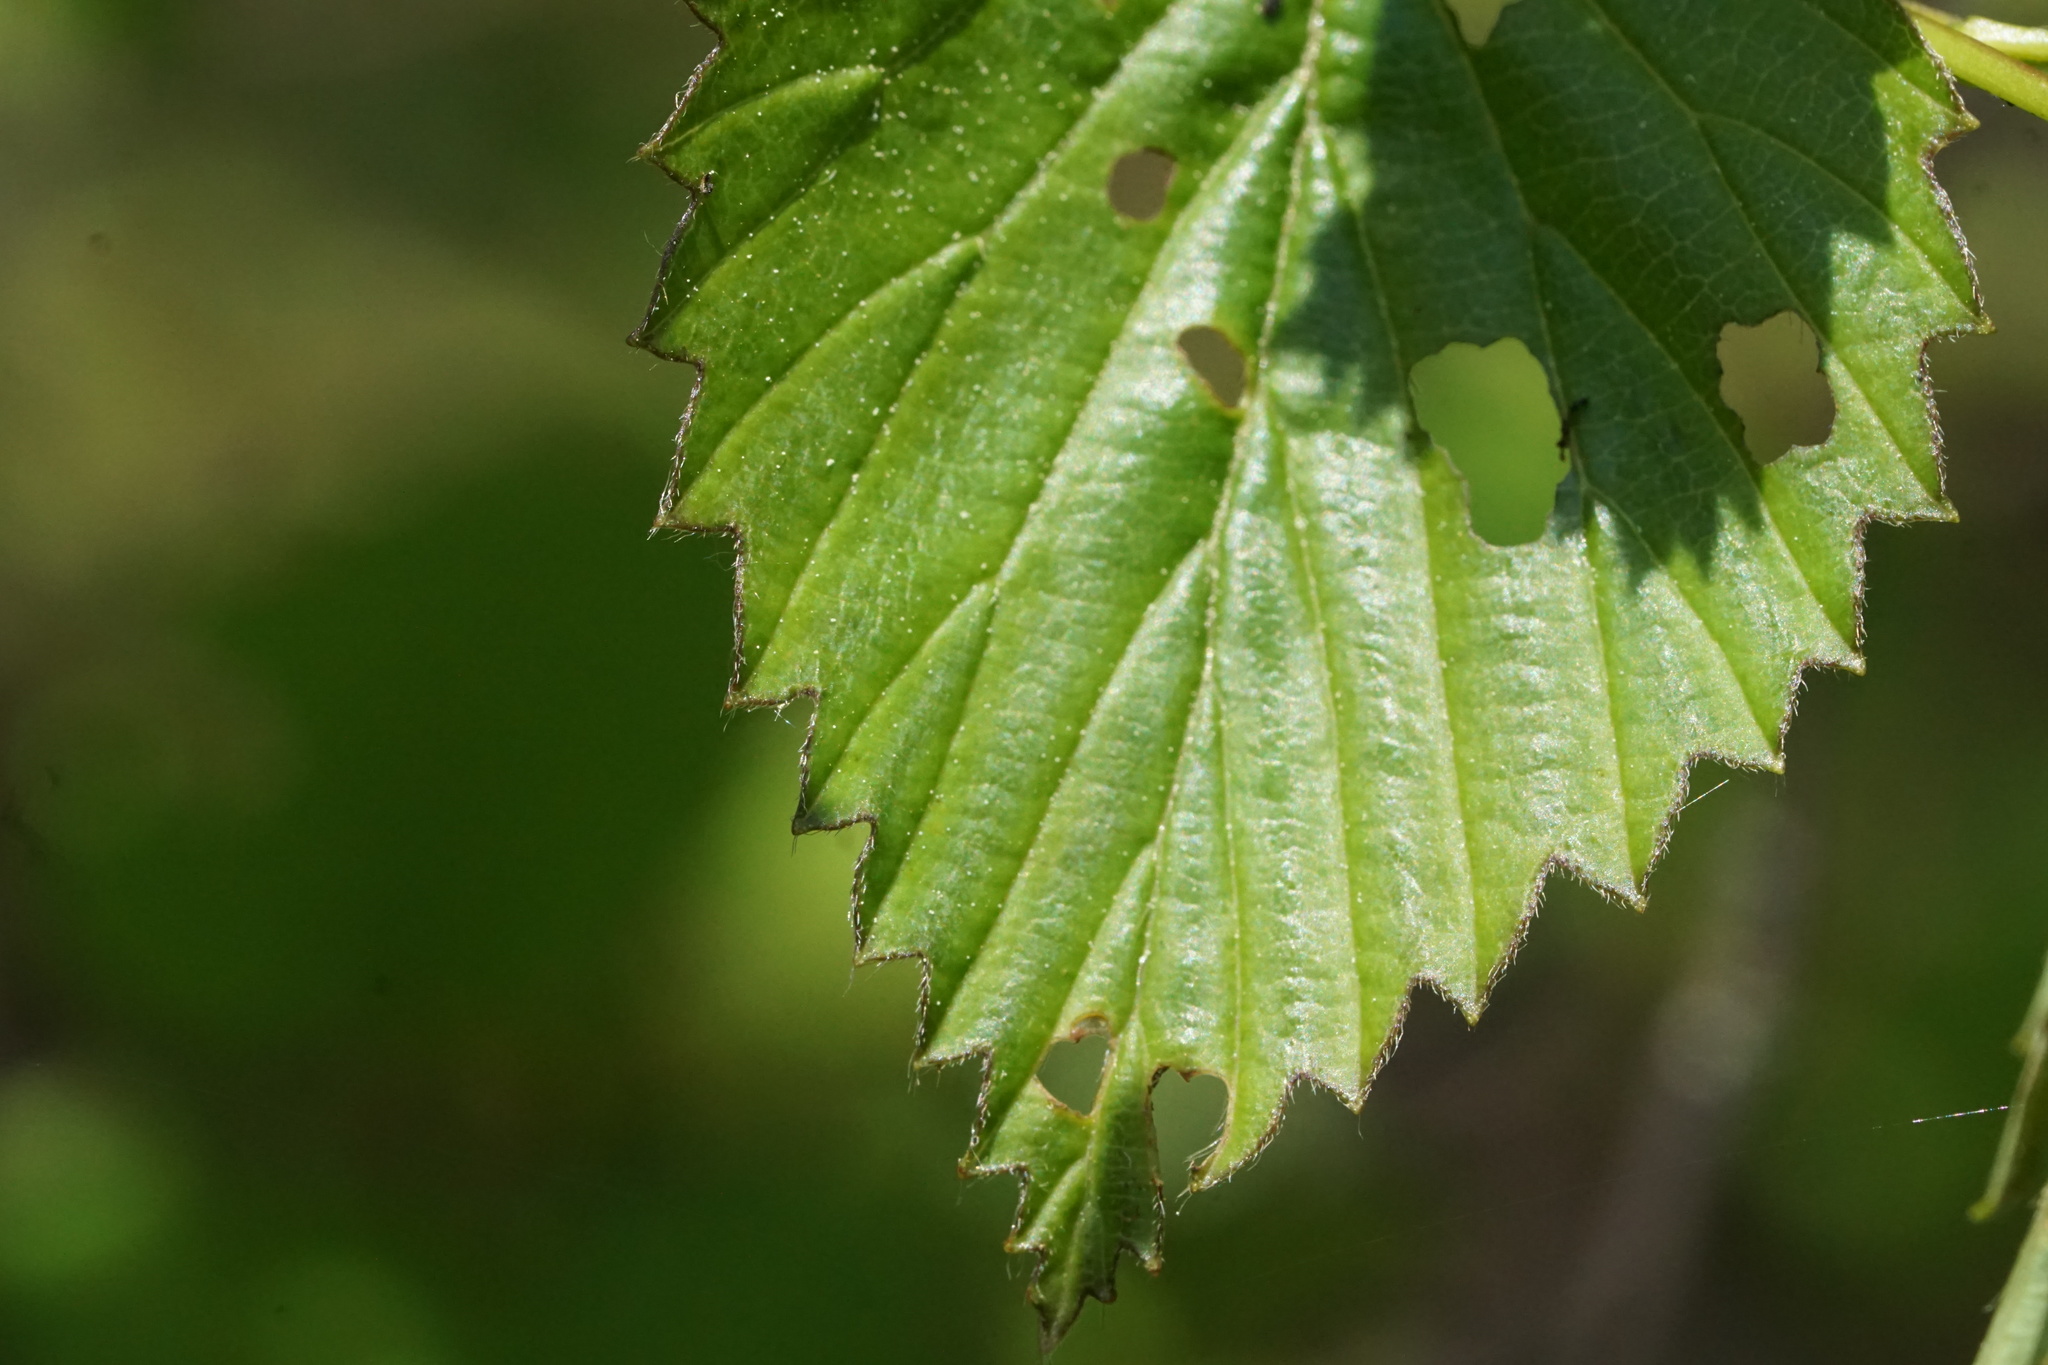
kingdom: Animalia
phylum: Arthropoda
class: Insecta
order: Coleoptera
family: Chrysomelidae
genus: Pyrrhalta
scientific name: Pyrrhalta viburni
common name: Guelder-rose leaf beetle
